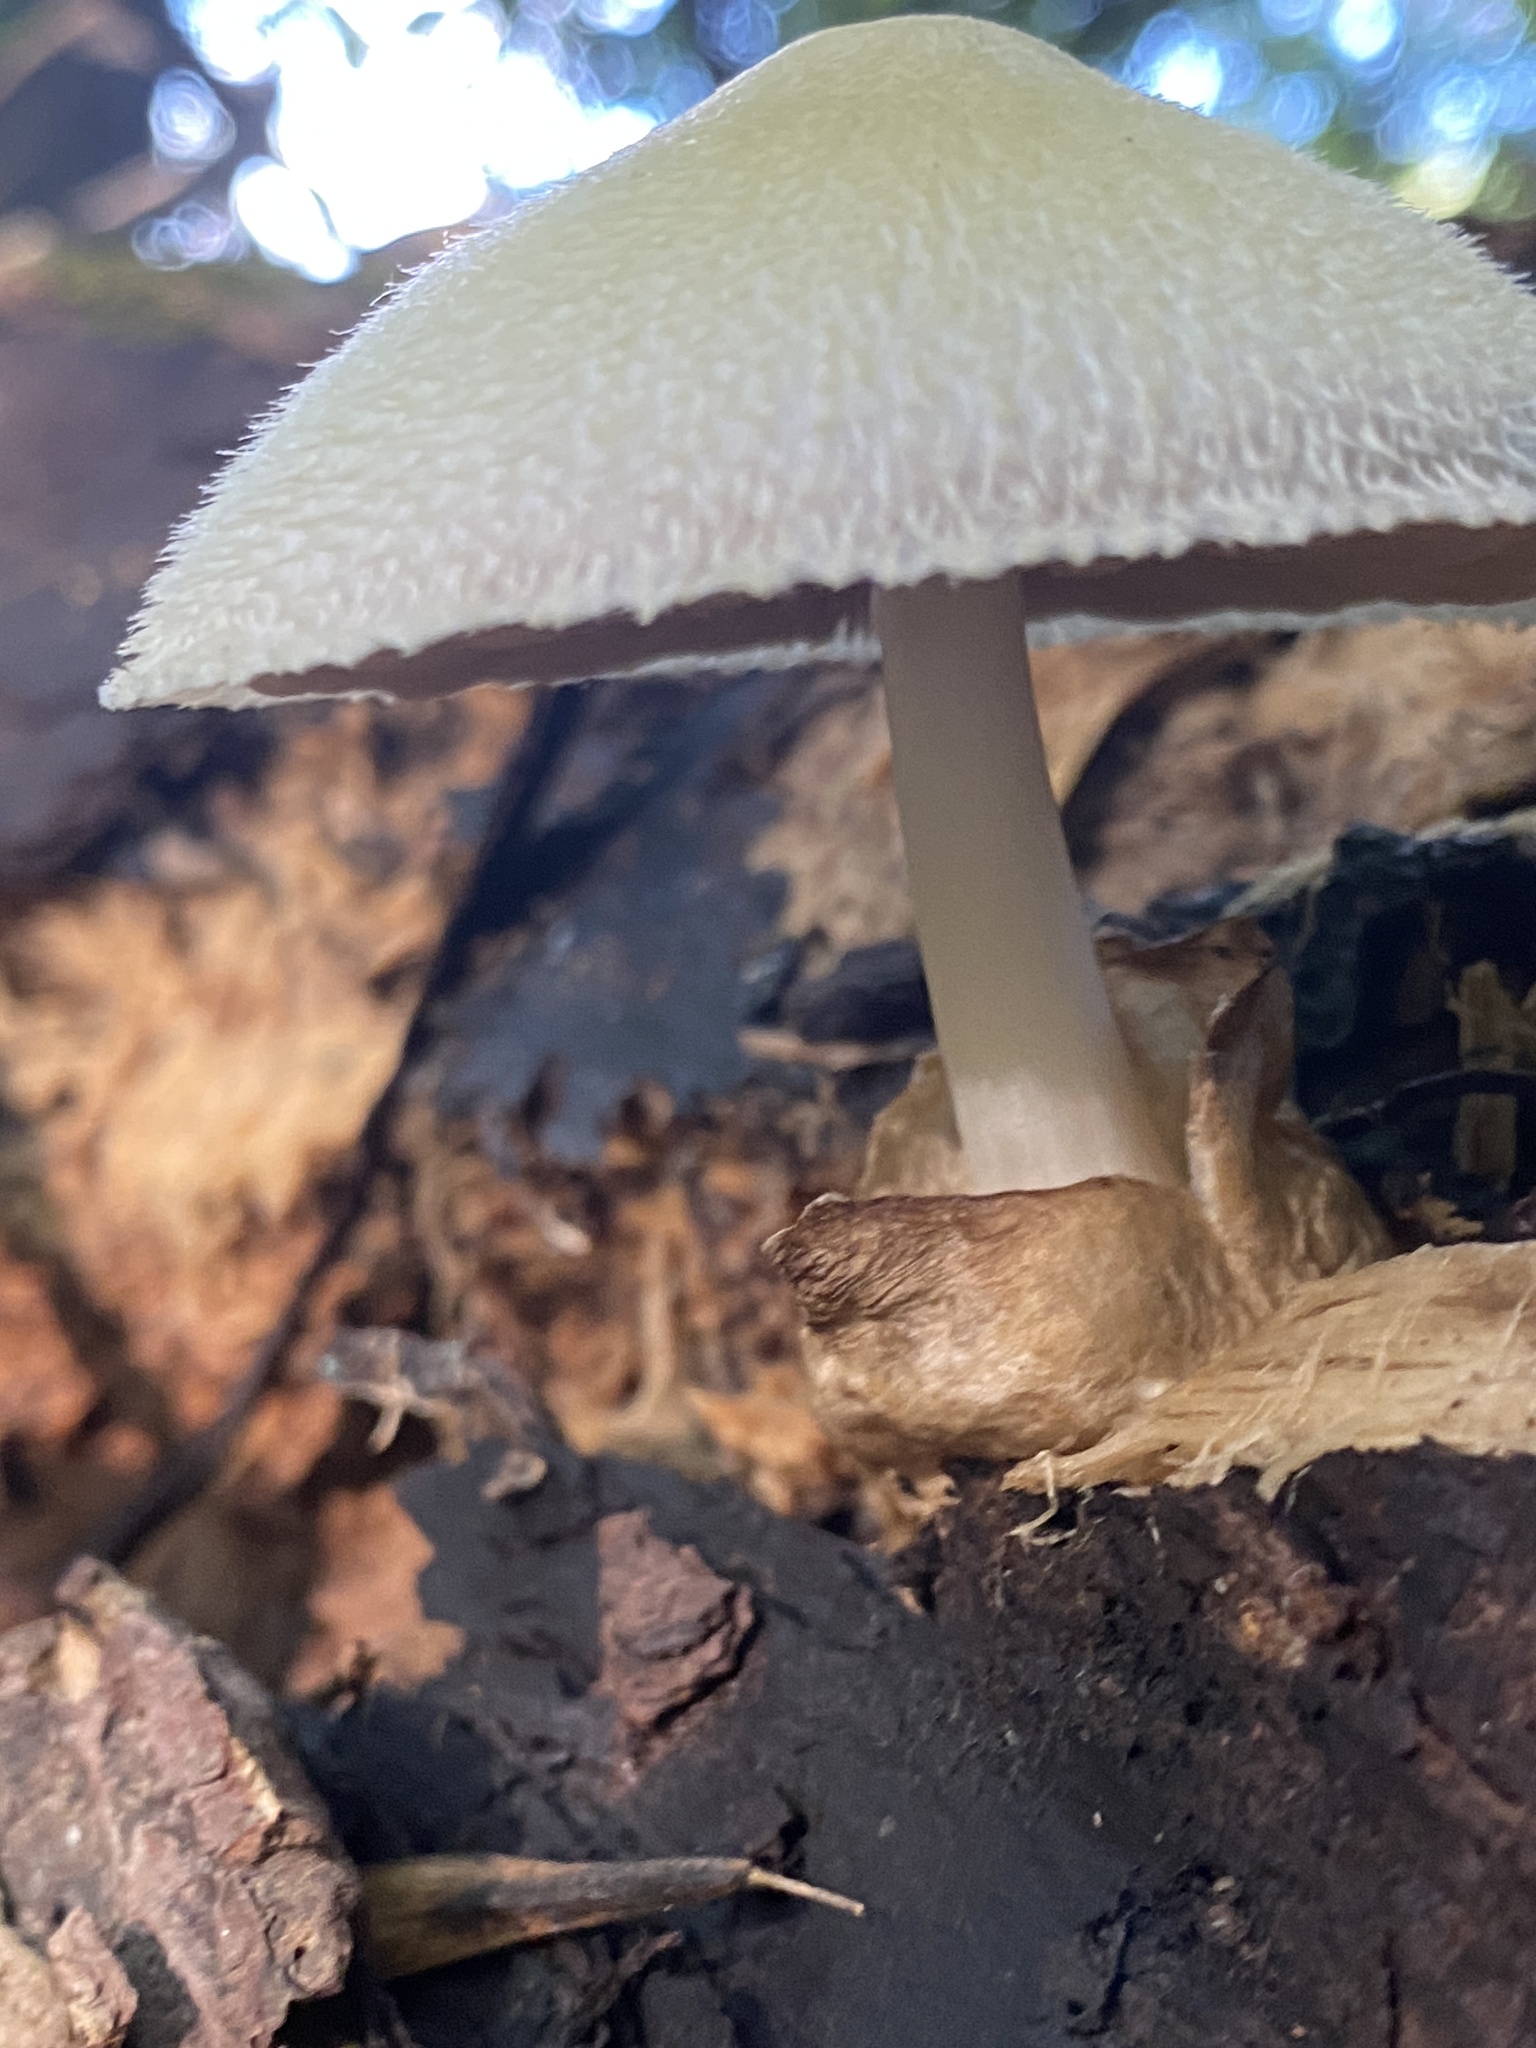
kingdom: Fungi
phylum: Basidiomycota
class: Agaricomycetes
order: Agaricales
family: Pluteaceae
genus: Volvariella
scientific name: Volvariella bombycina
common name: Silky rosegill
